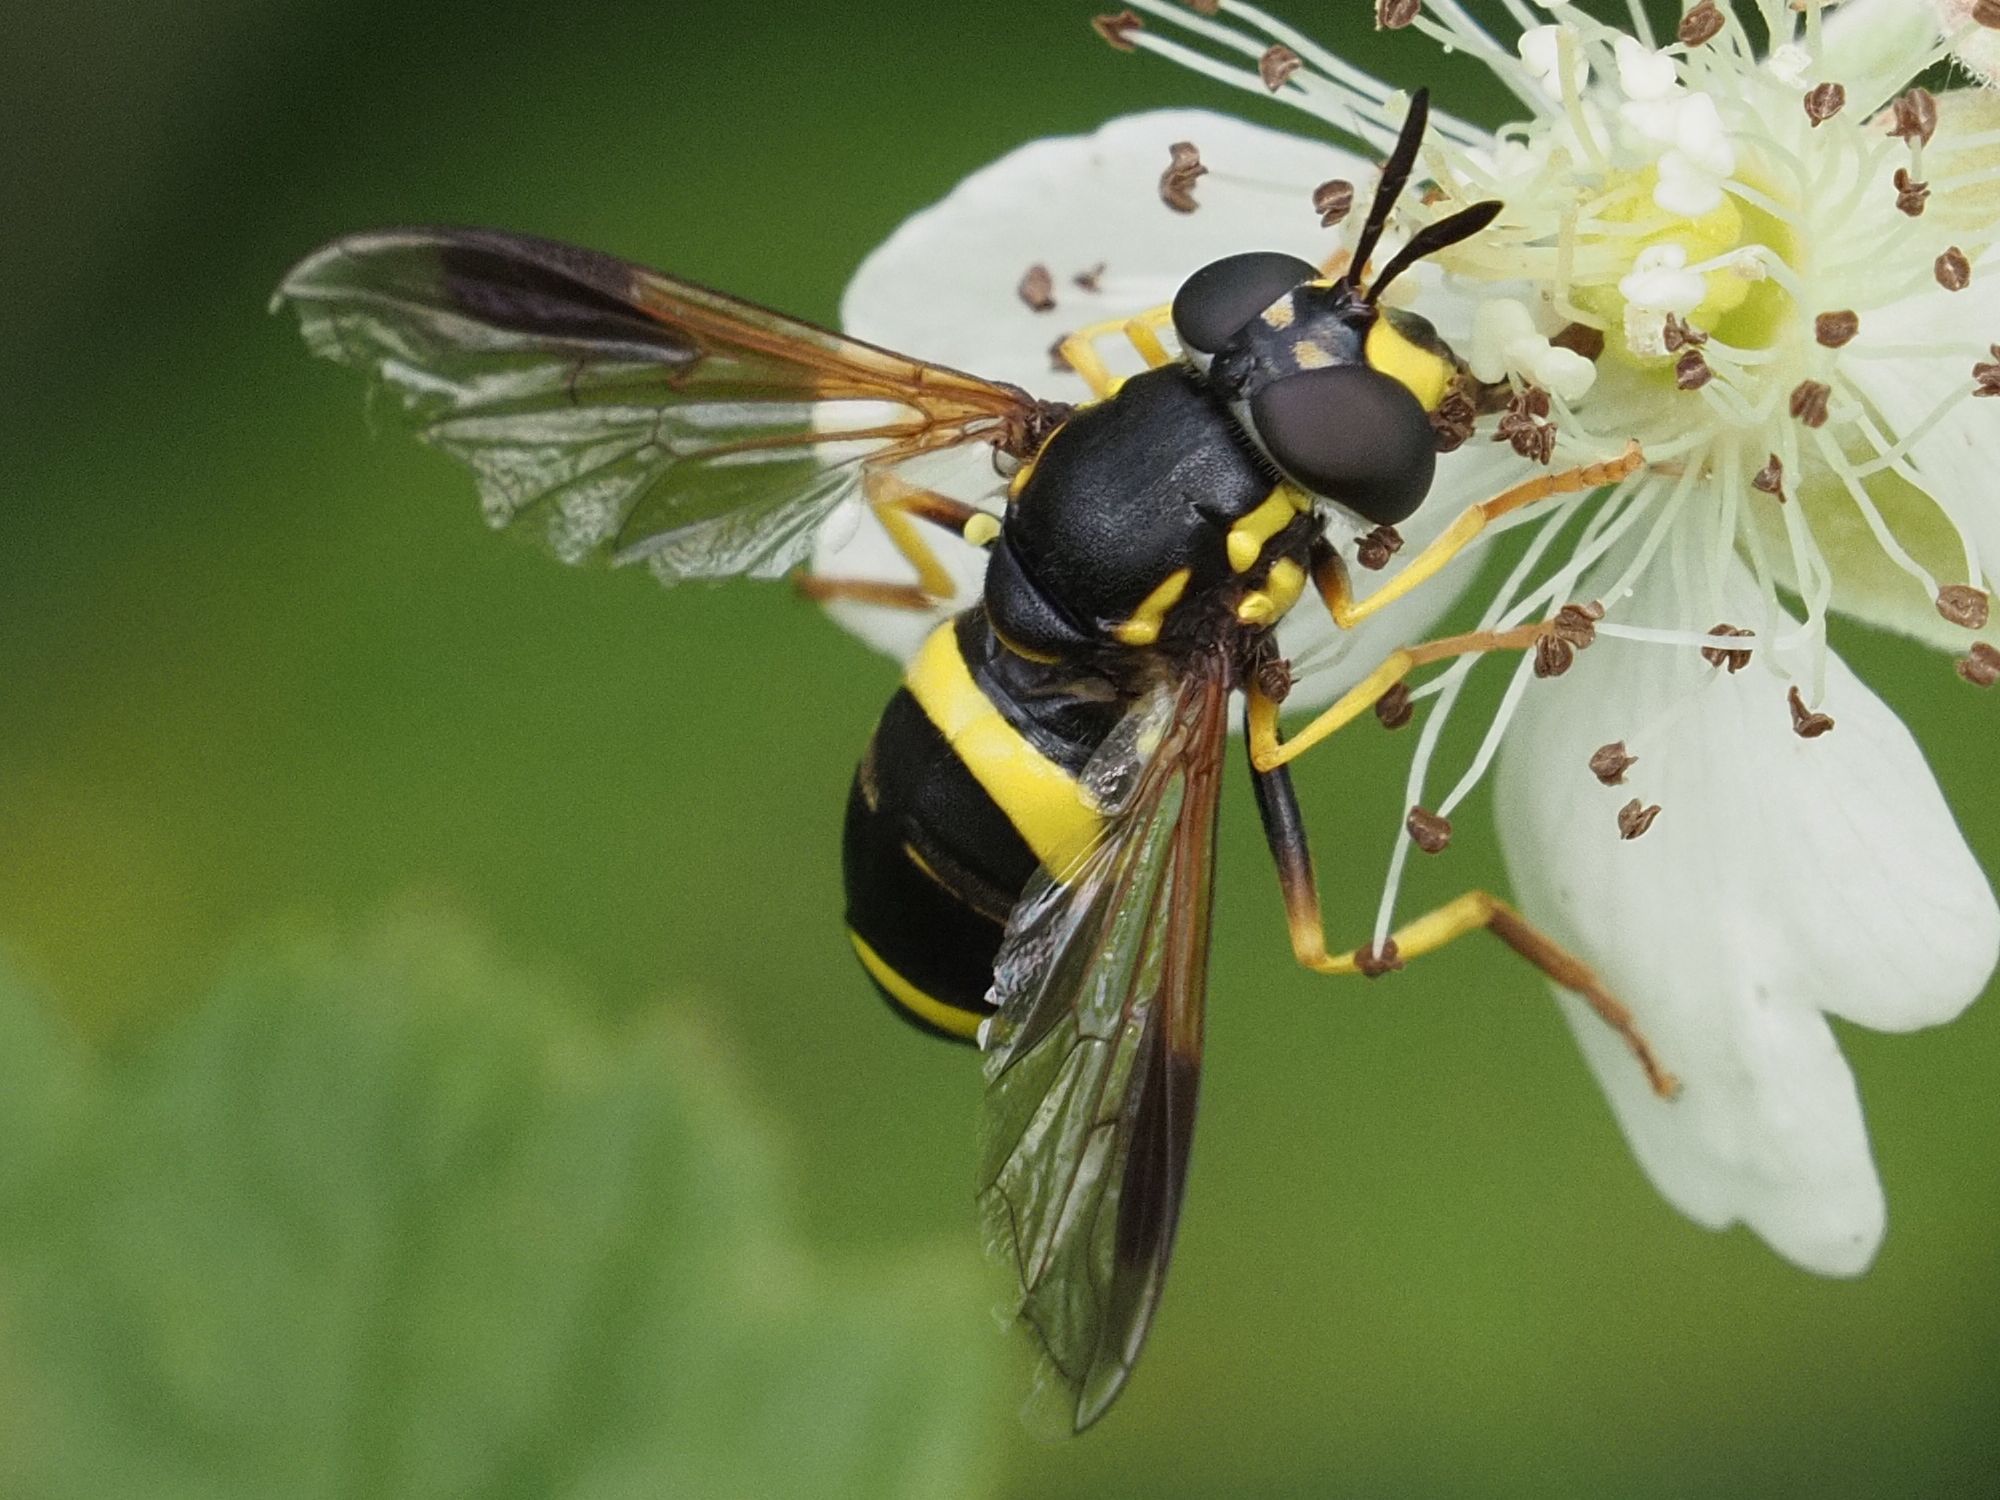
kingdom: Animalia
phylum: Arthropoda
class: Insecta
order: Diptera
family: Syrphidae
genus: Chrysotoxum
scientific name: Chrysotoxum bicincta
